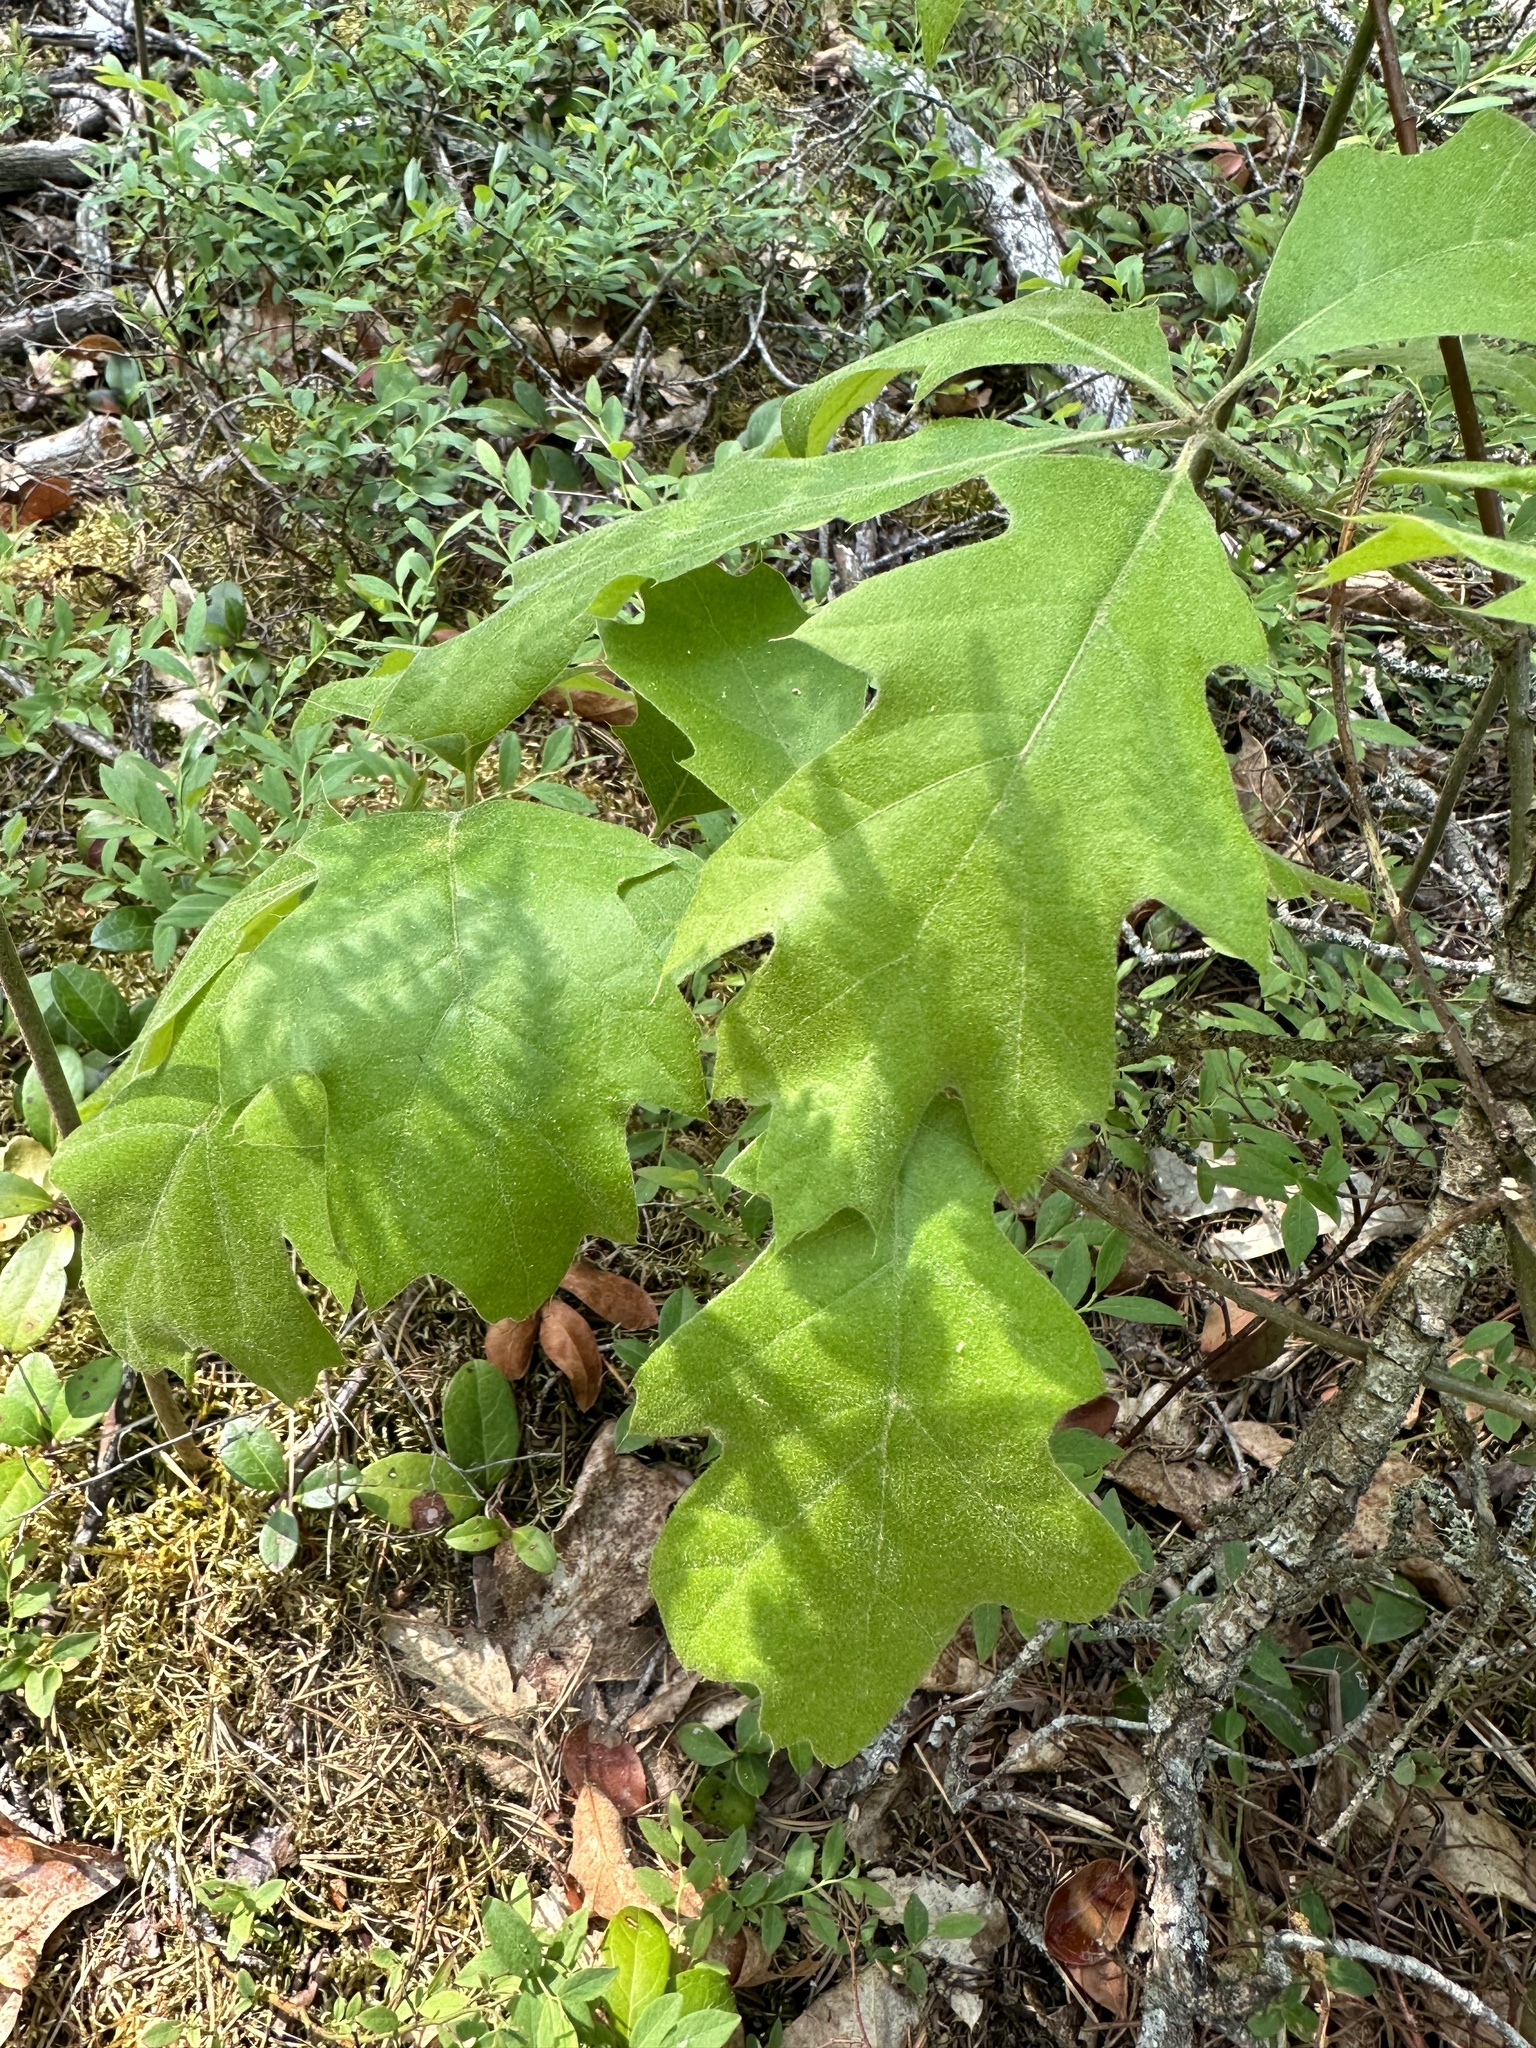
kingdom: Plantae
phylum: Tracheophyta
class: Magnoliopsida
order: Fagales
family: Fagaceae
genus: Quercus
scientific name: Quercus rubra
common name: Red oak
